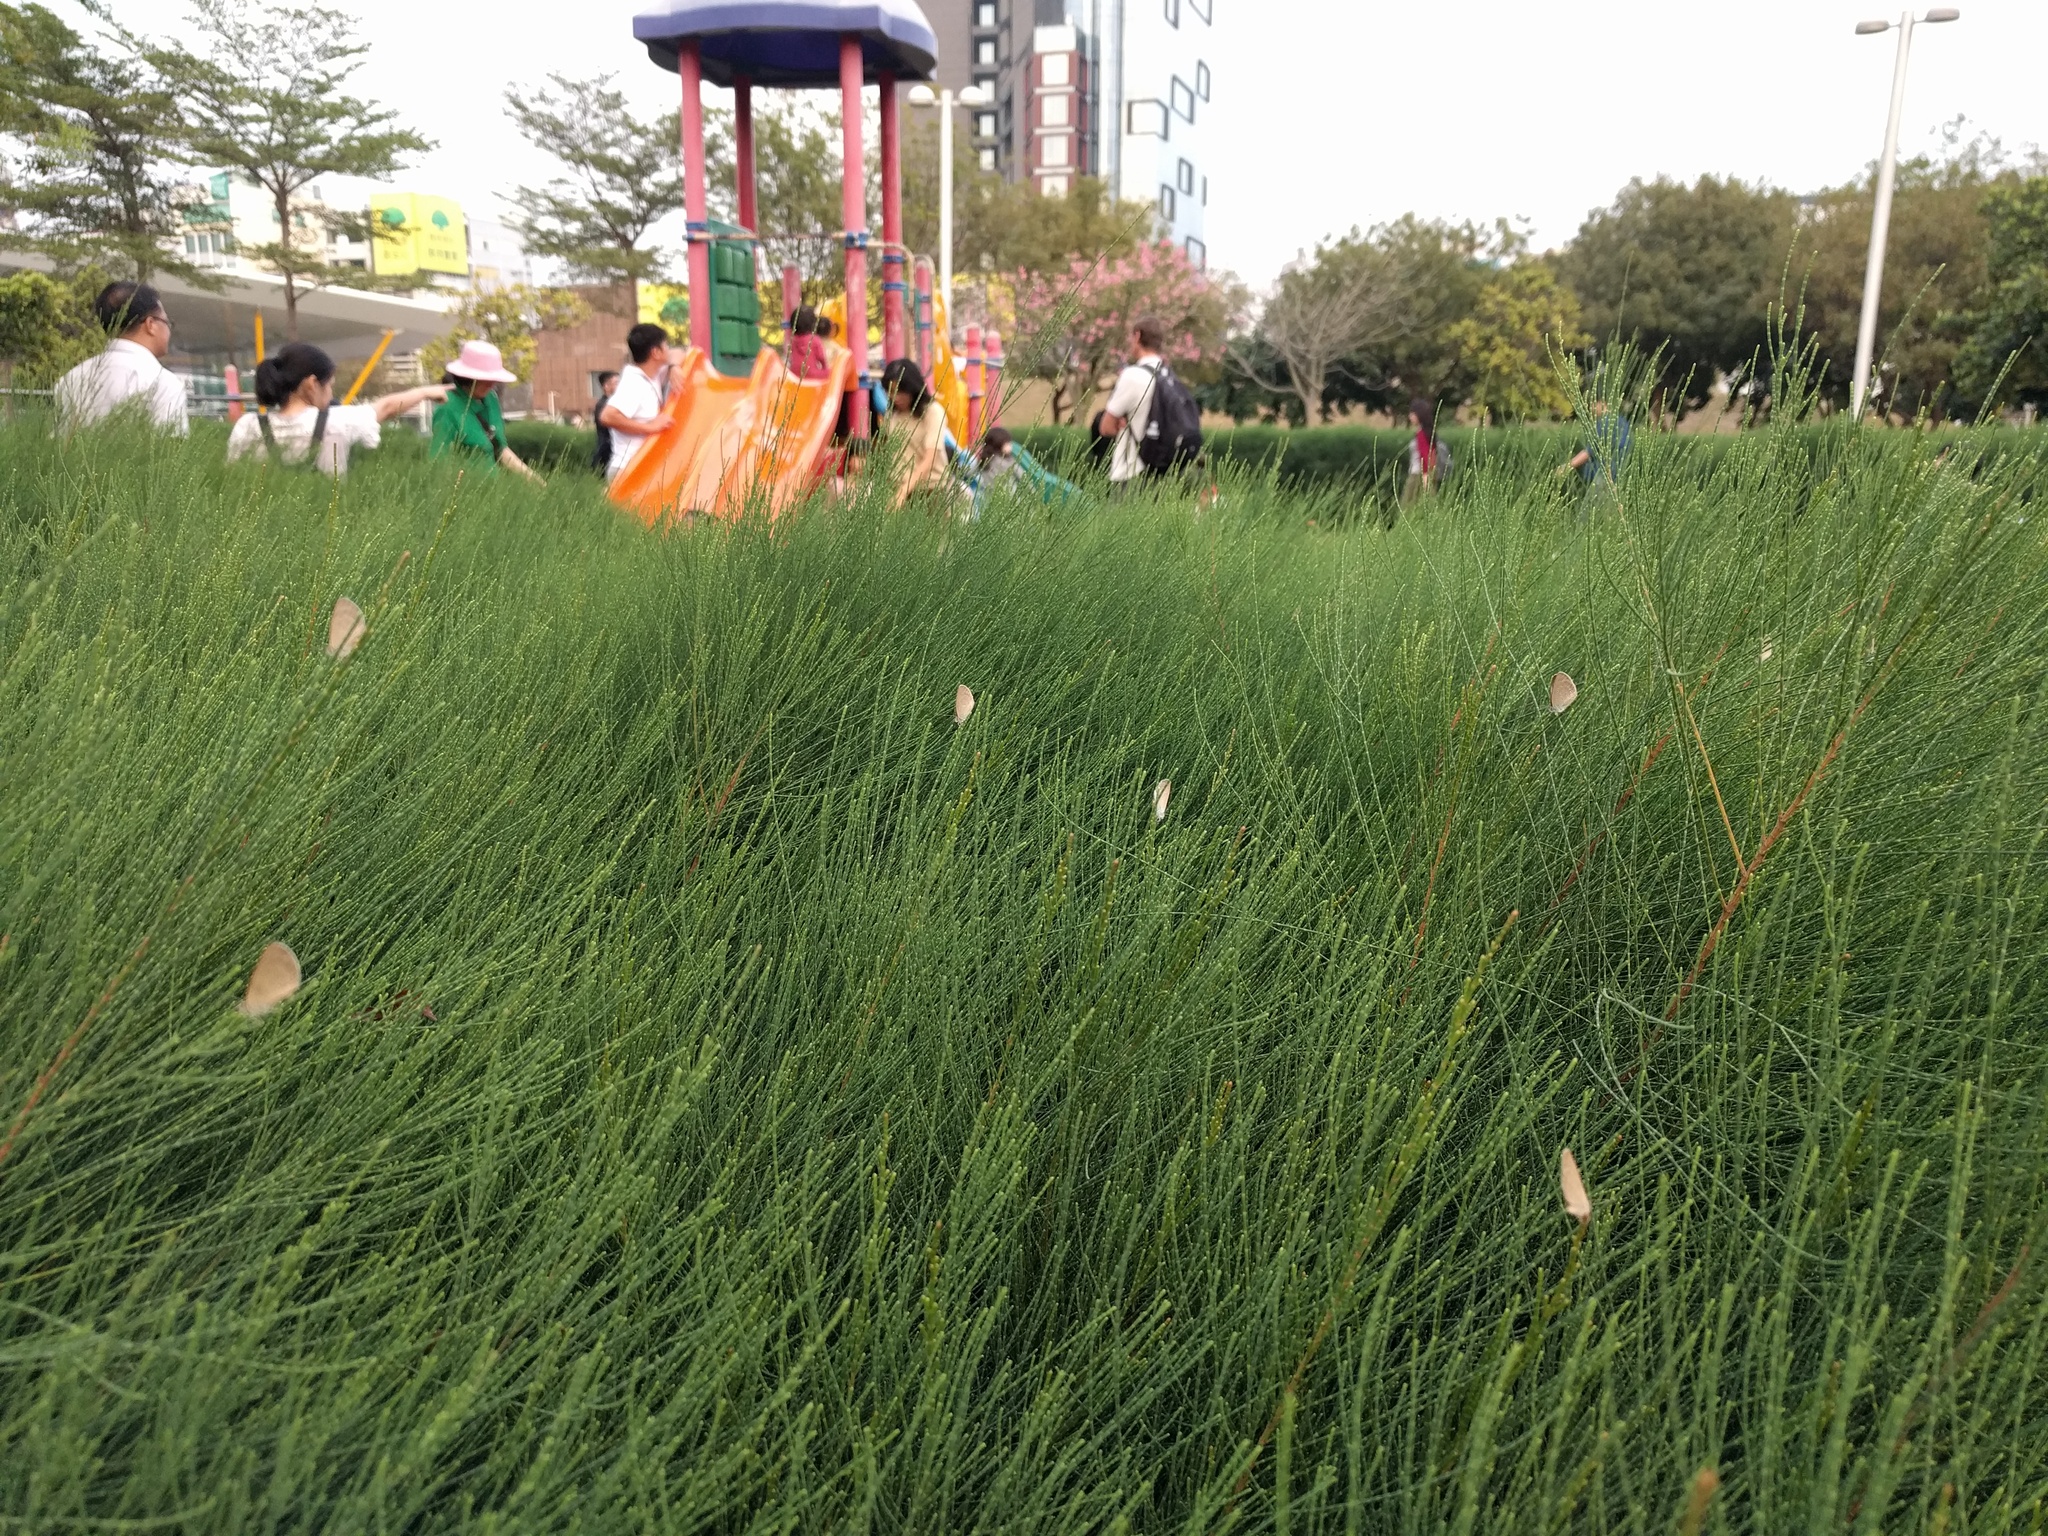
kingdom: Animalia
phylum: Arthropoda
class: Insecta
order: Lepidoptera
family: Lycaenidae
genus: Pseudozizeeria
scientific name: Pseudozizeeria maha
